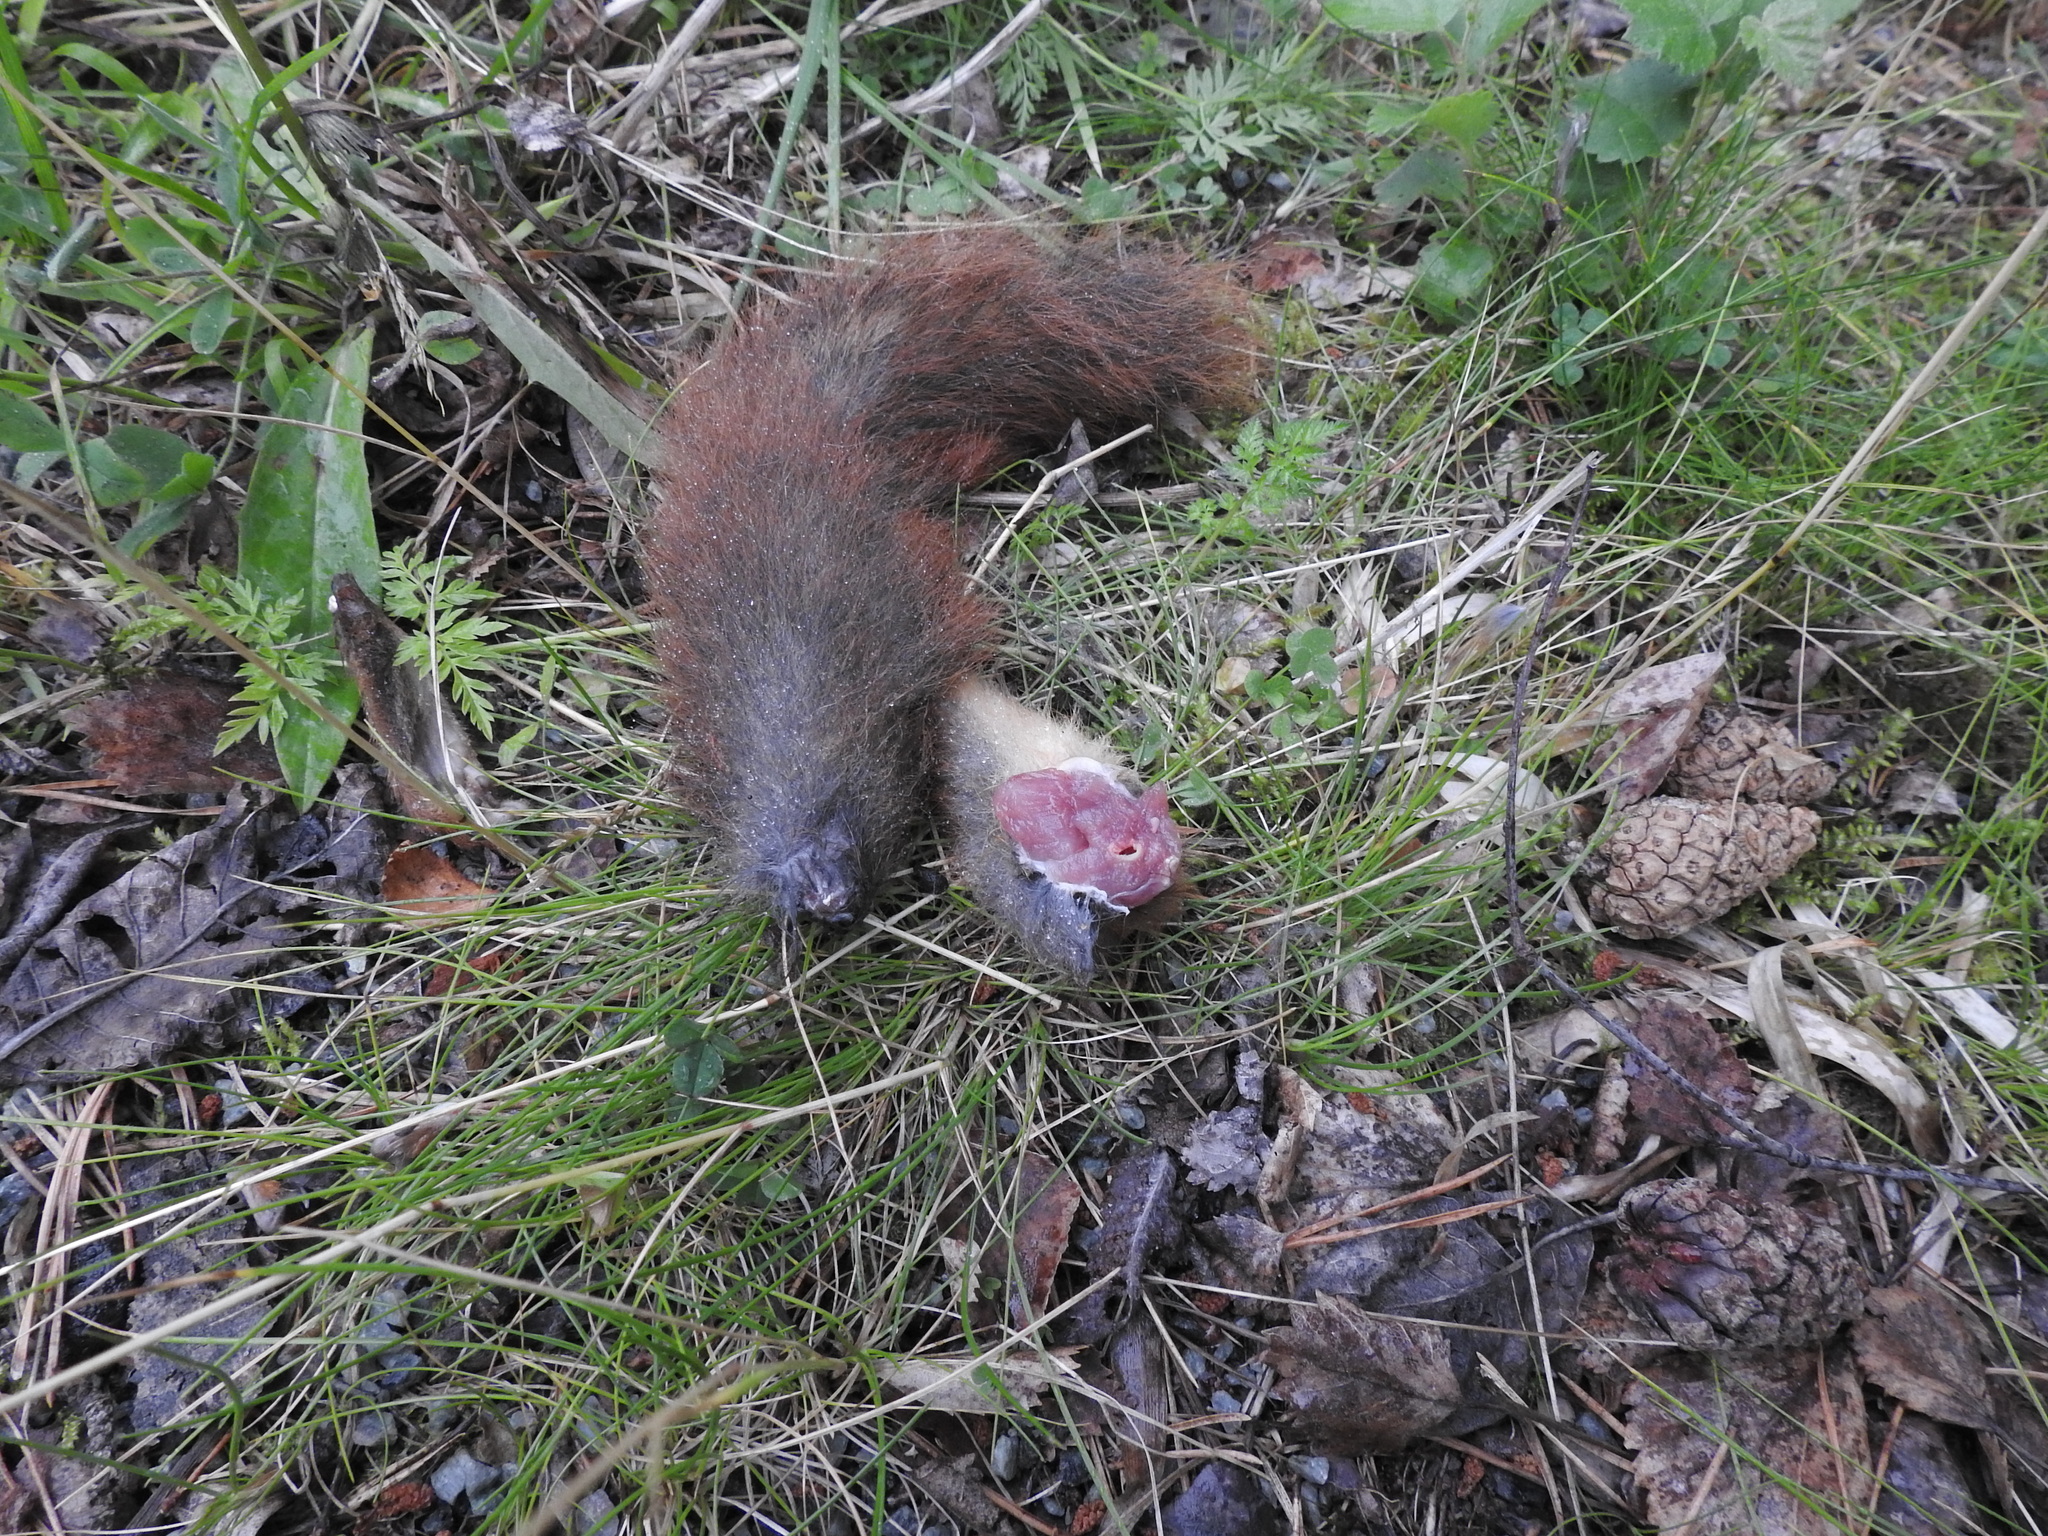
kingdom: Animalia
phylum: Chordata
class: Mammalia
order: Rodentia
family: Sciuridae
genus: Sciurus
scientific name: Sciurus vulgaris
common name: Eurasian red squirrel
